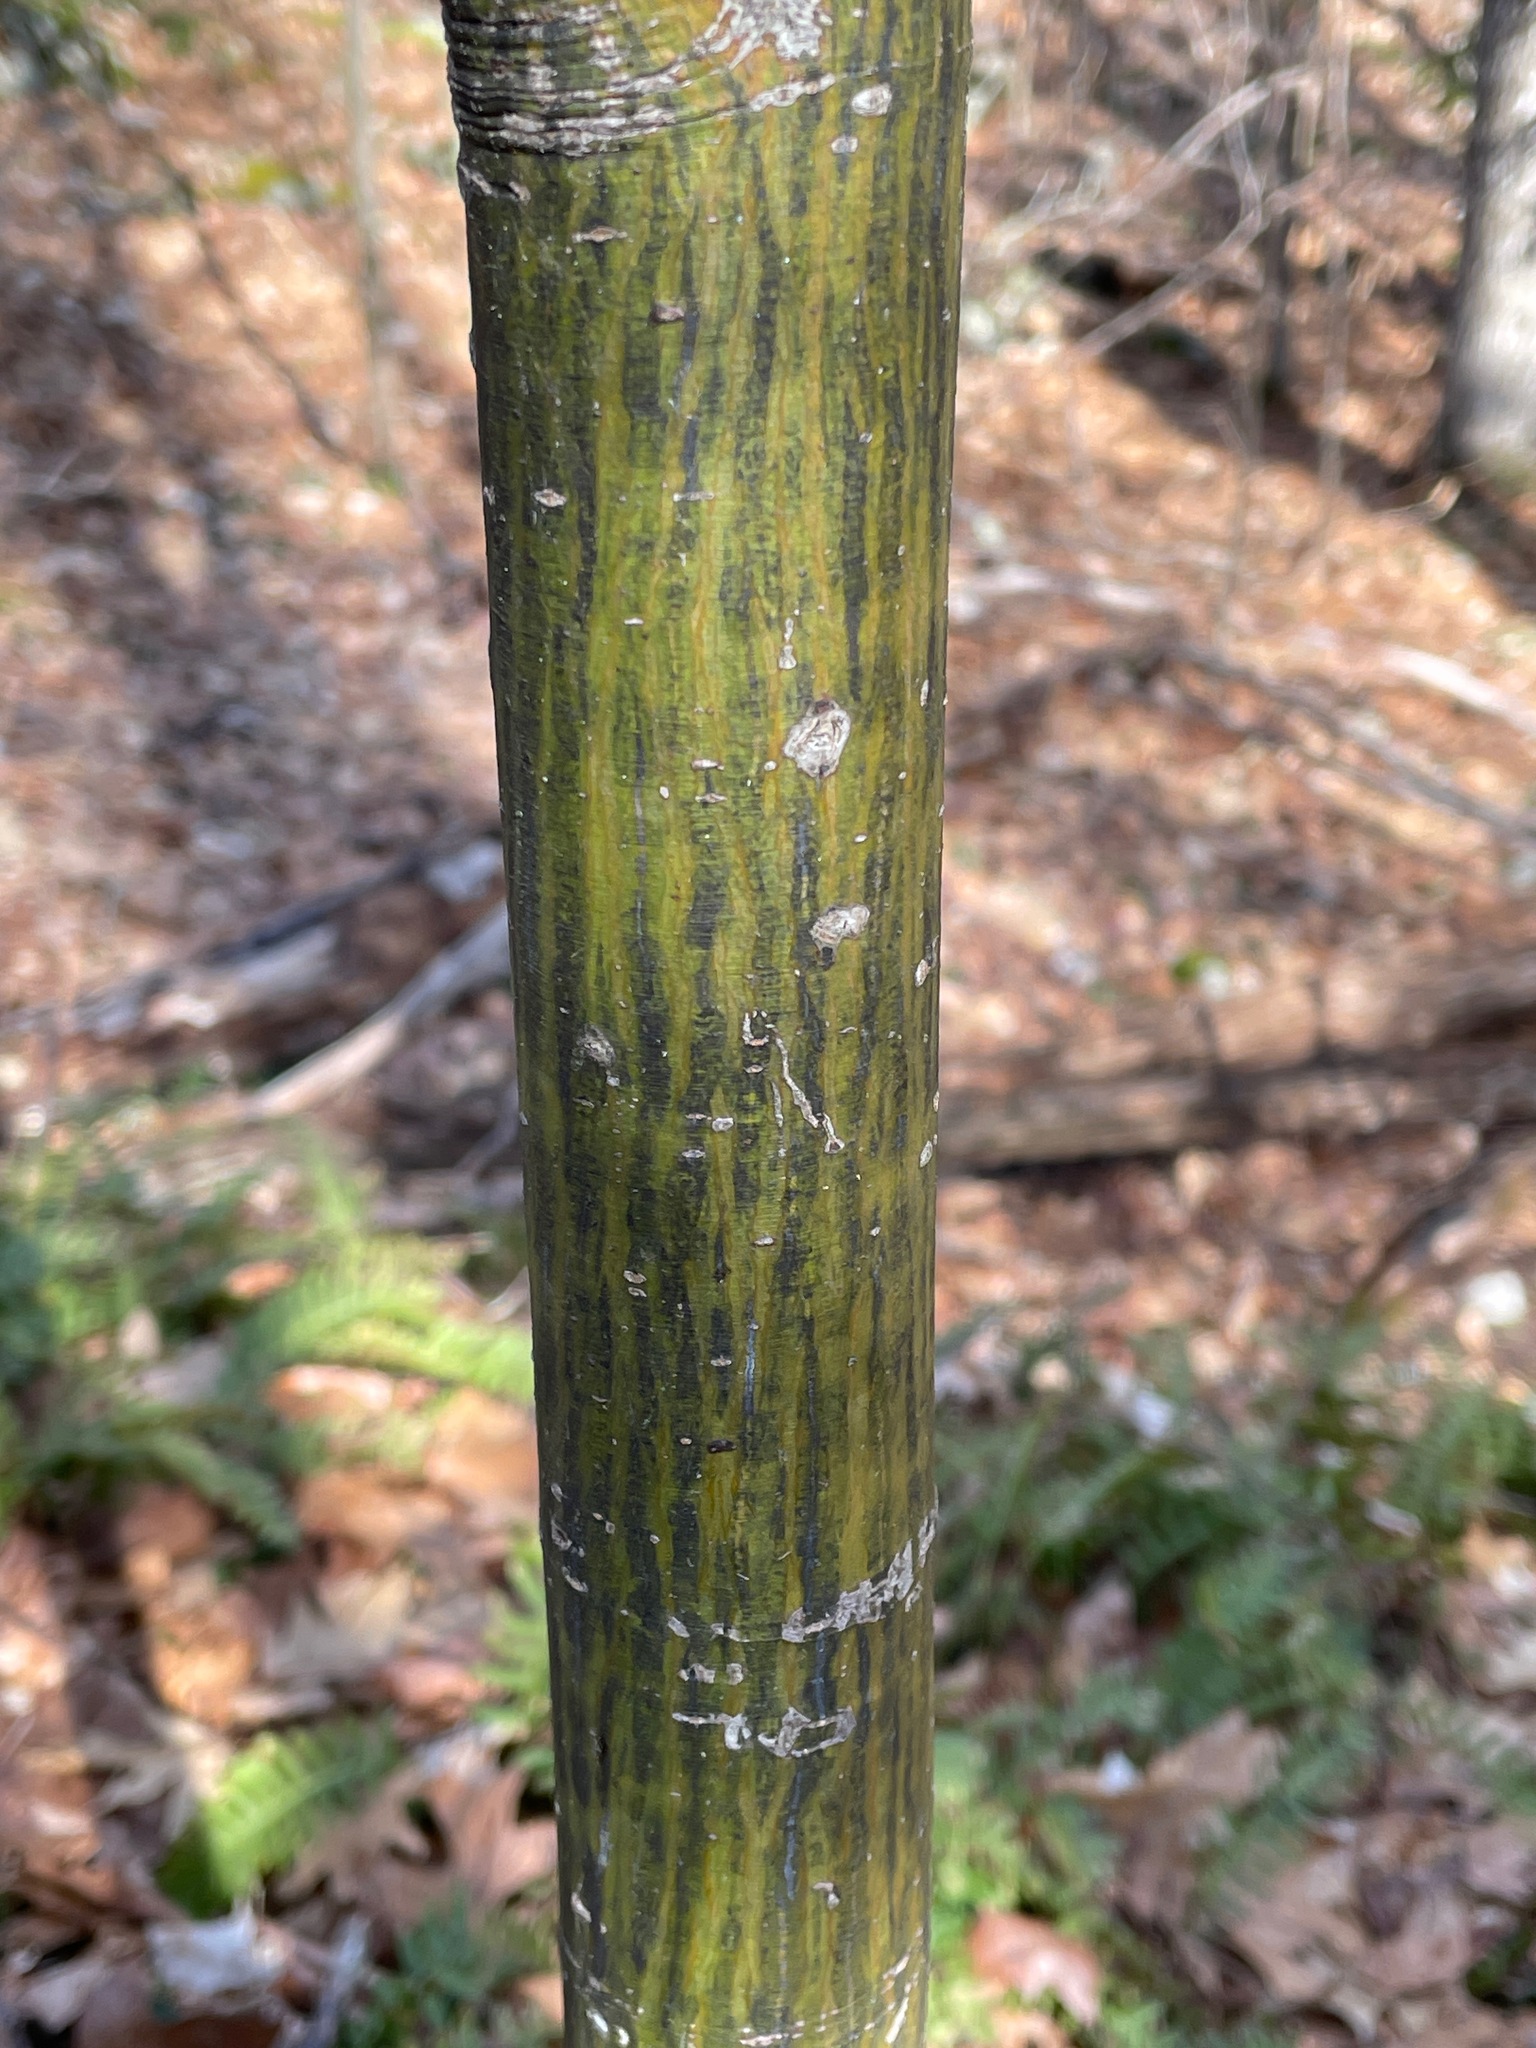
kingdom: Plantae
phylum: Tracheophyta
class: Magnoliopsida
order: Sapindales
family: Sapindaceae
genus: Acer
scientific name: Acer pensylvanicum
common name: Moosewood
